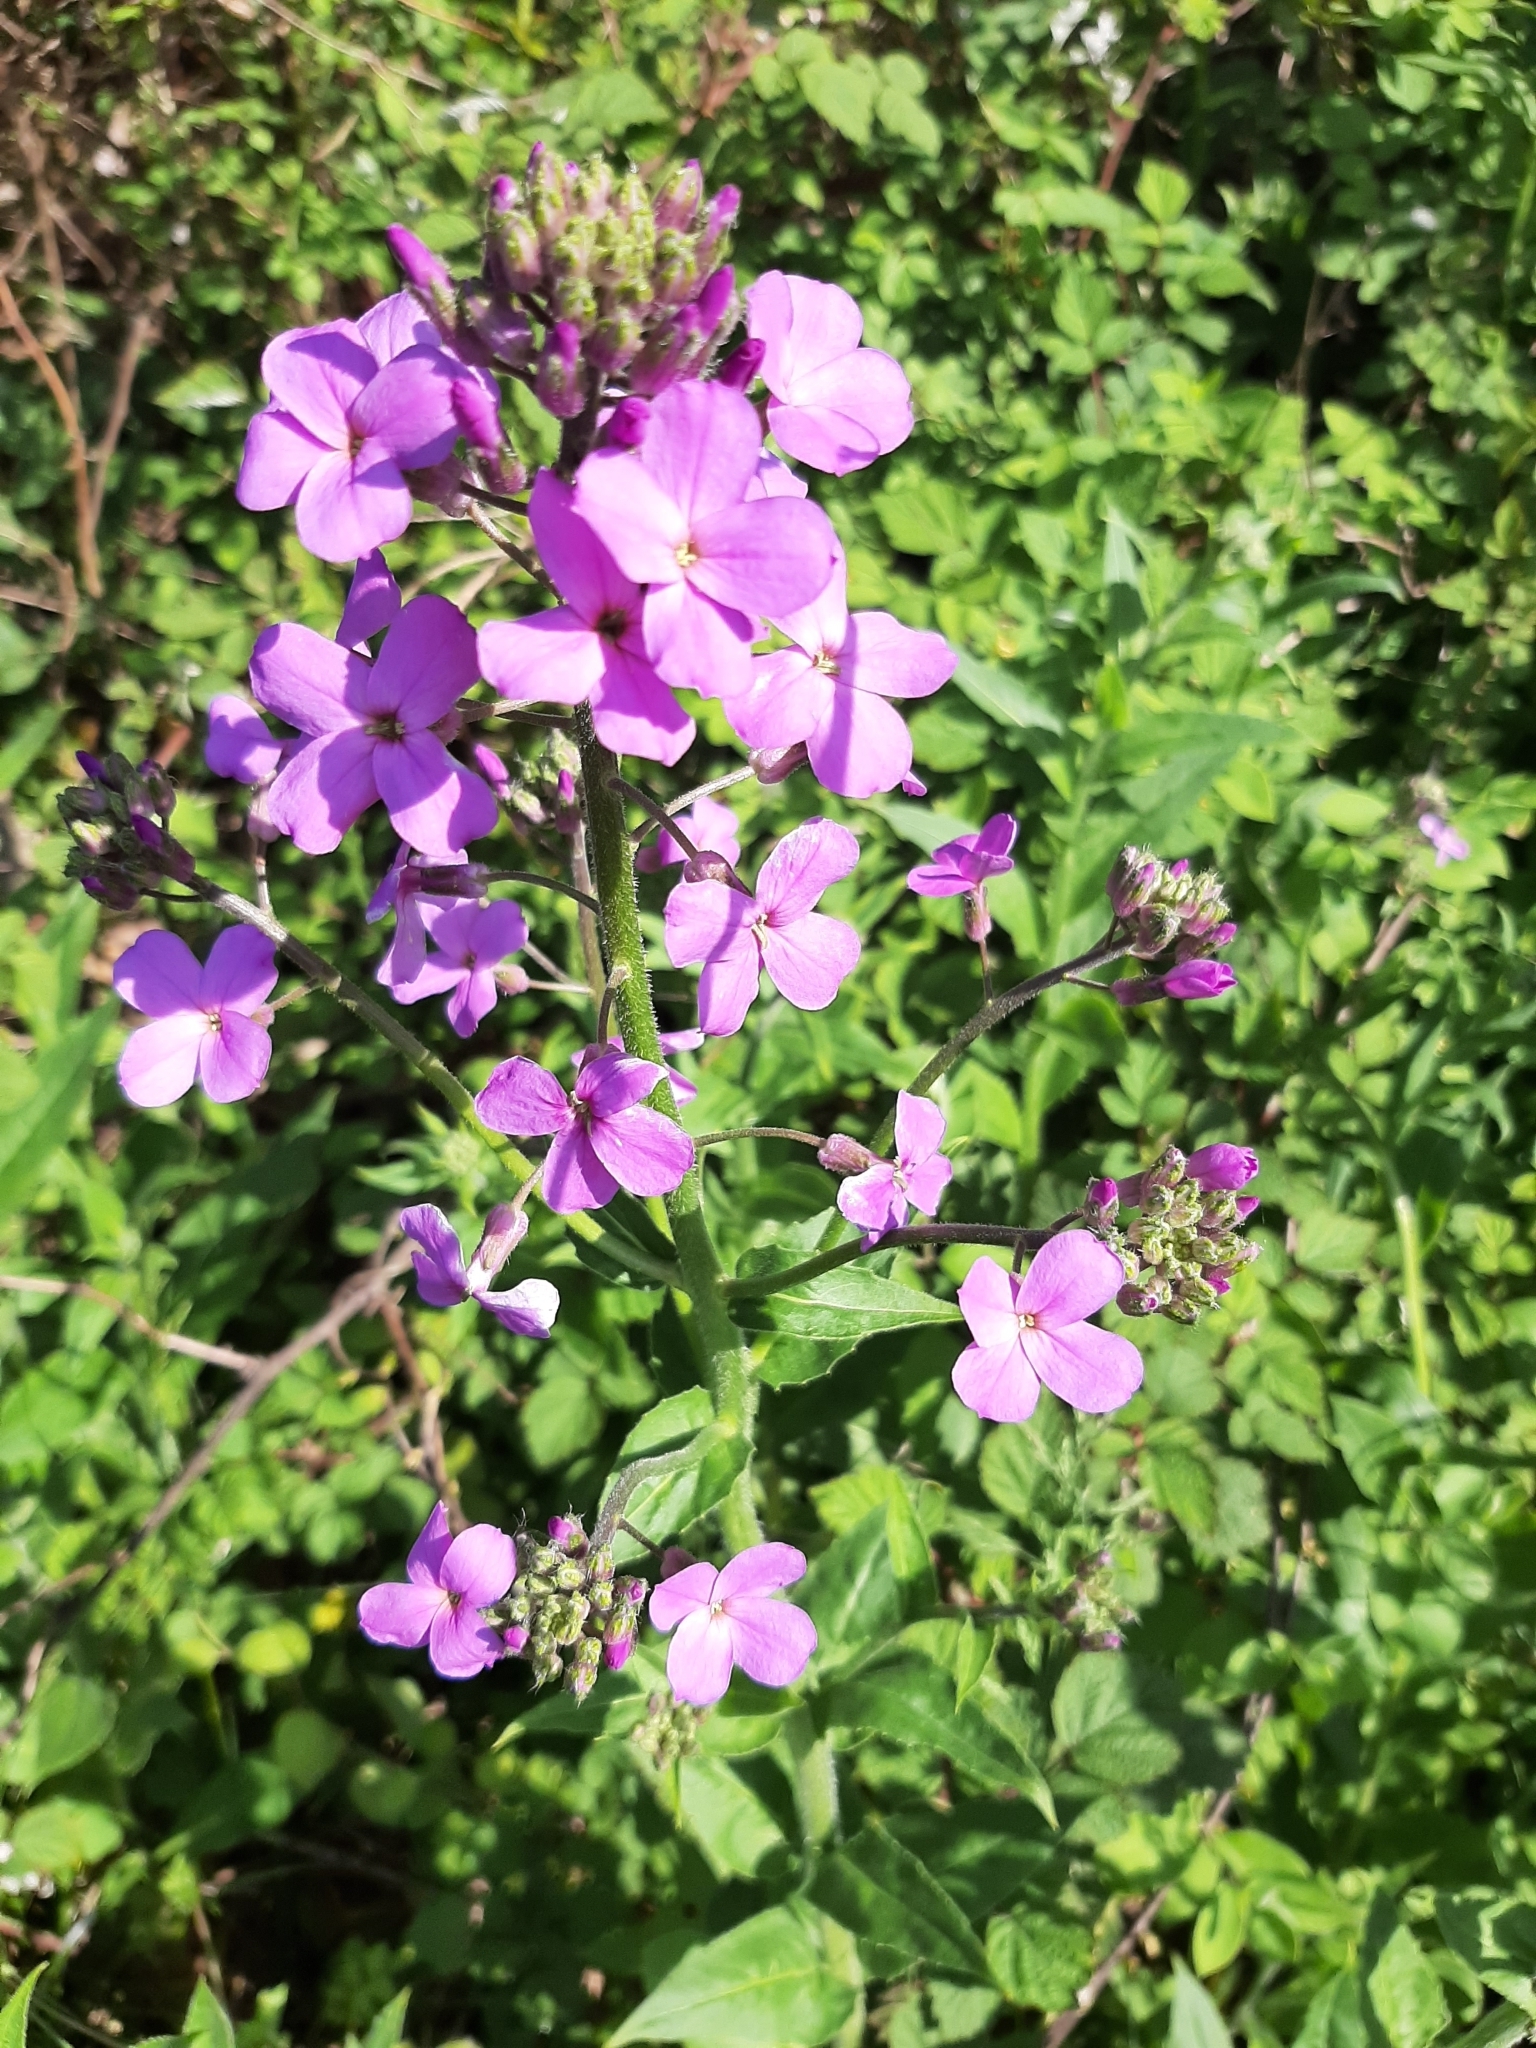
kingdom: Plantae
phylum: Tracheophyta
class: Magnoliopsida
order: Brassicales
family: Brassicaceae
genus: Hesperis
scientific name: Hesperis matronalis
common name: Dame's-violet
